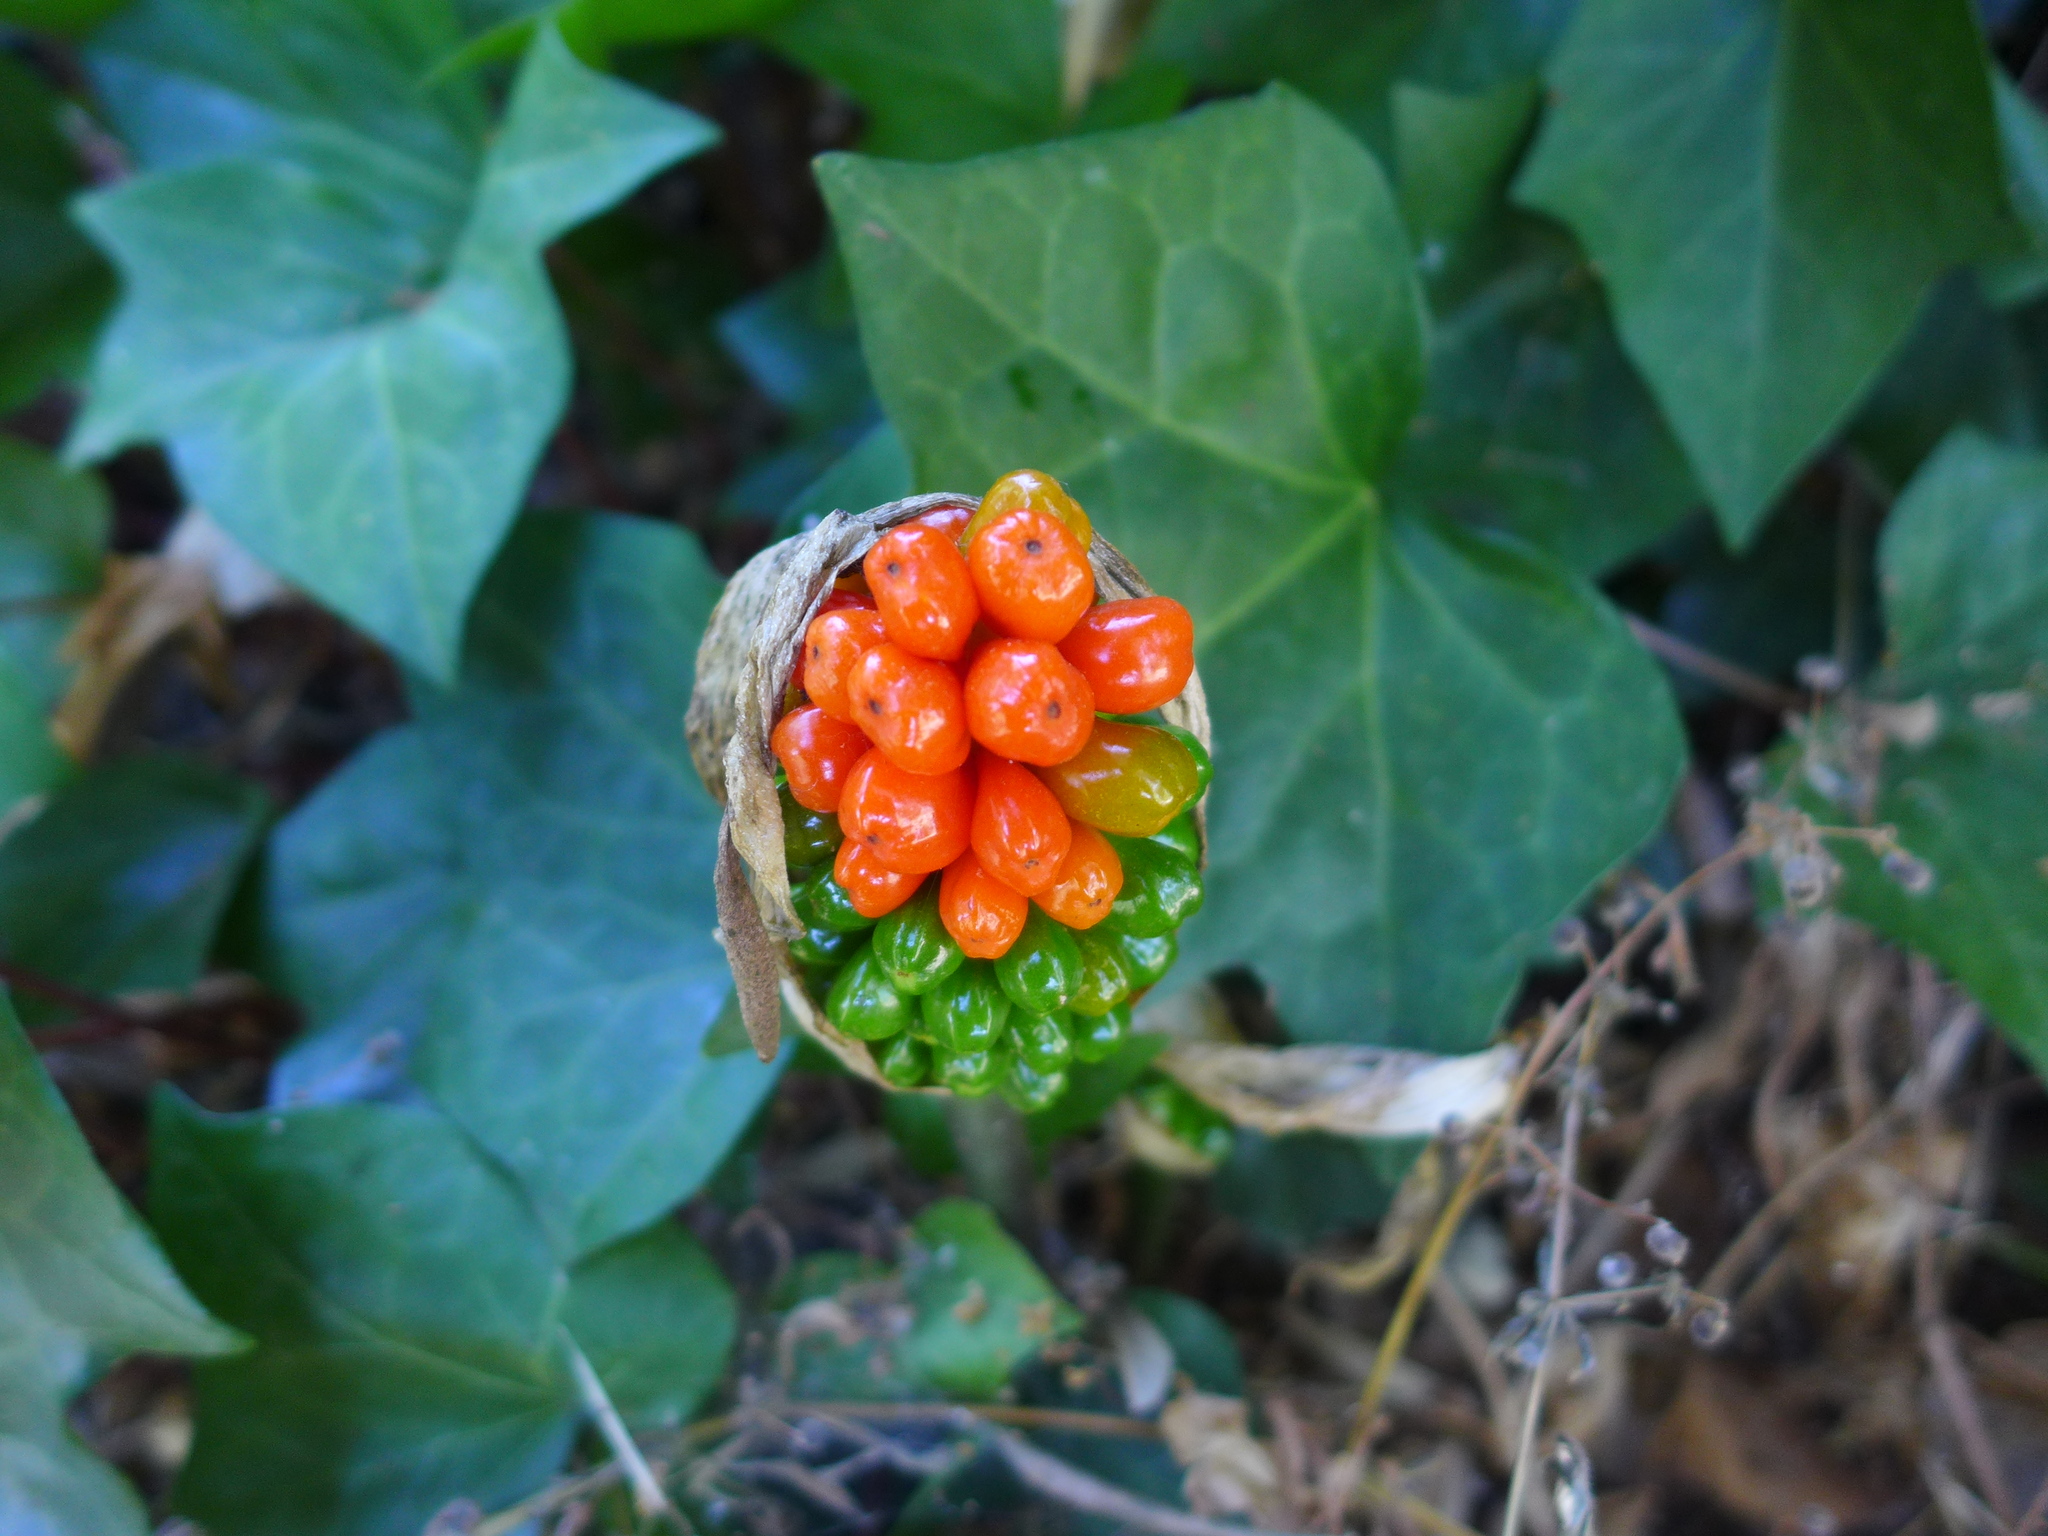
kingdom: Plantae
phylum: Tracheophyta
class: Liliopsida
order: Alismatales
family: Araceae
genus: Arum
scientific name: Arum italicum
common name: Italian lords-and-ladies
